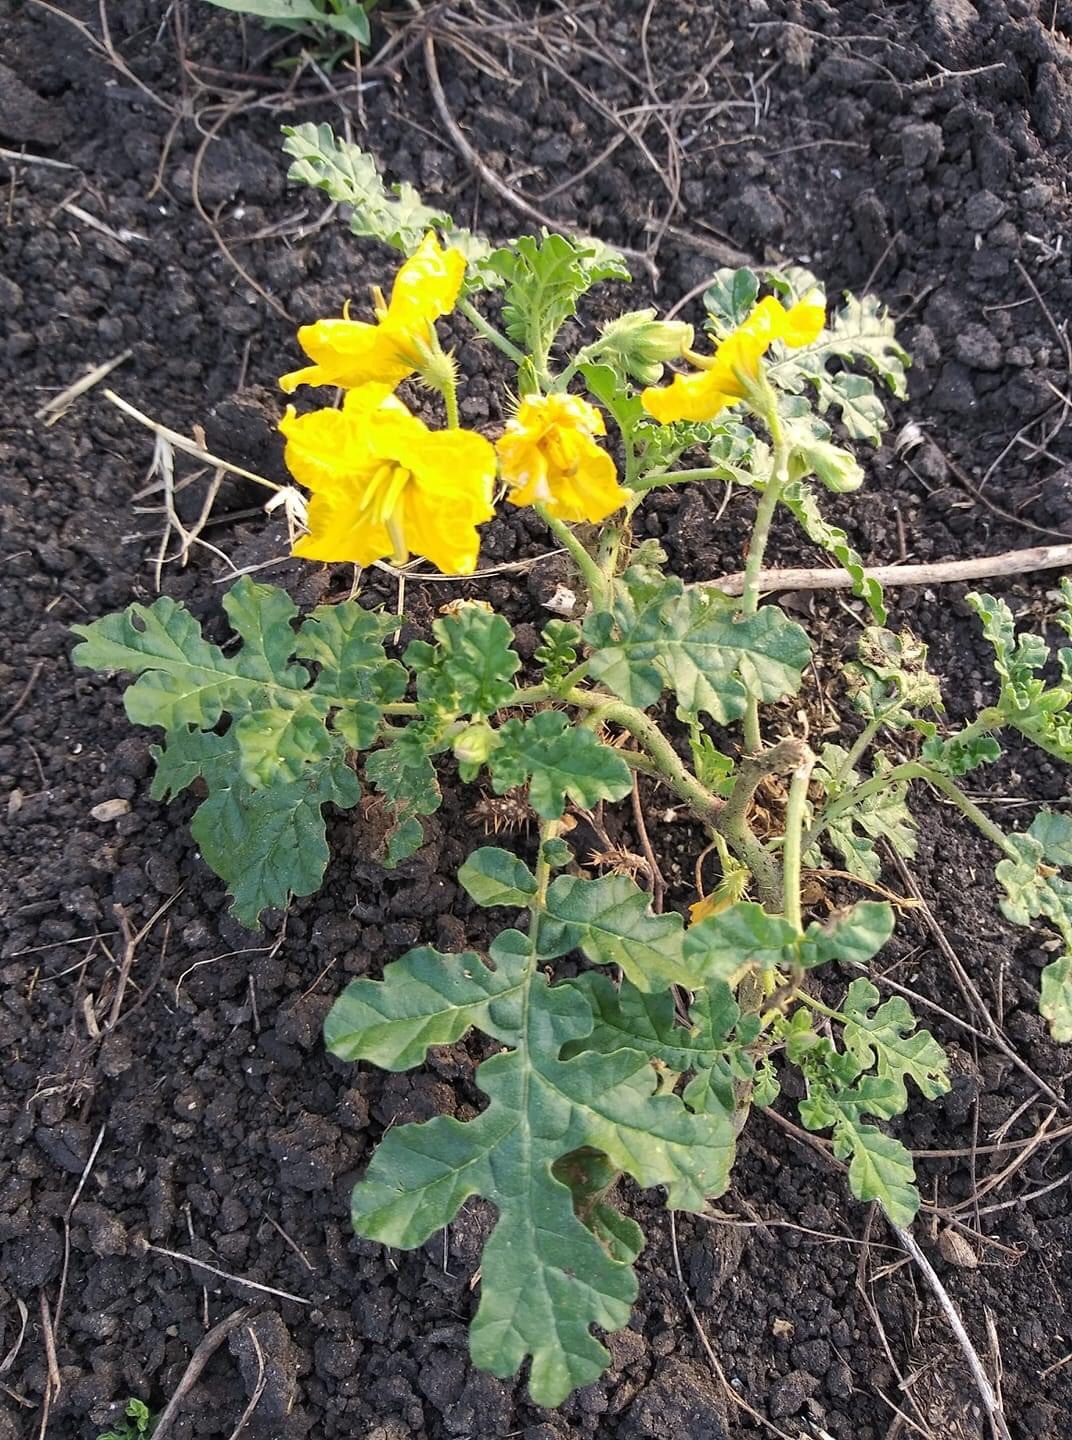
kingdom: Plantae
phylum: Tracheophyta
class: Magnoliopsida
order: Solanales
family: Solanaceae
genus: Solanum
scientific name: Solanum angustifolium
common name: Buffalobur nightshade
